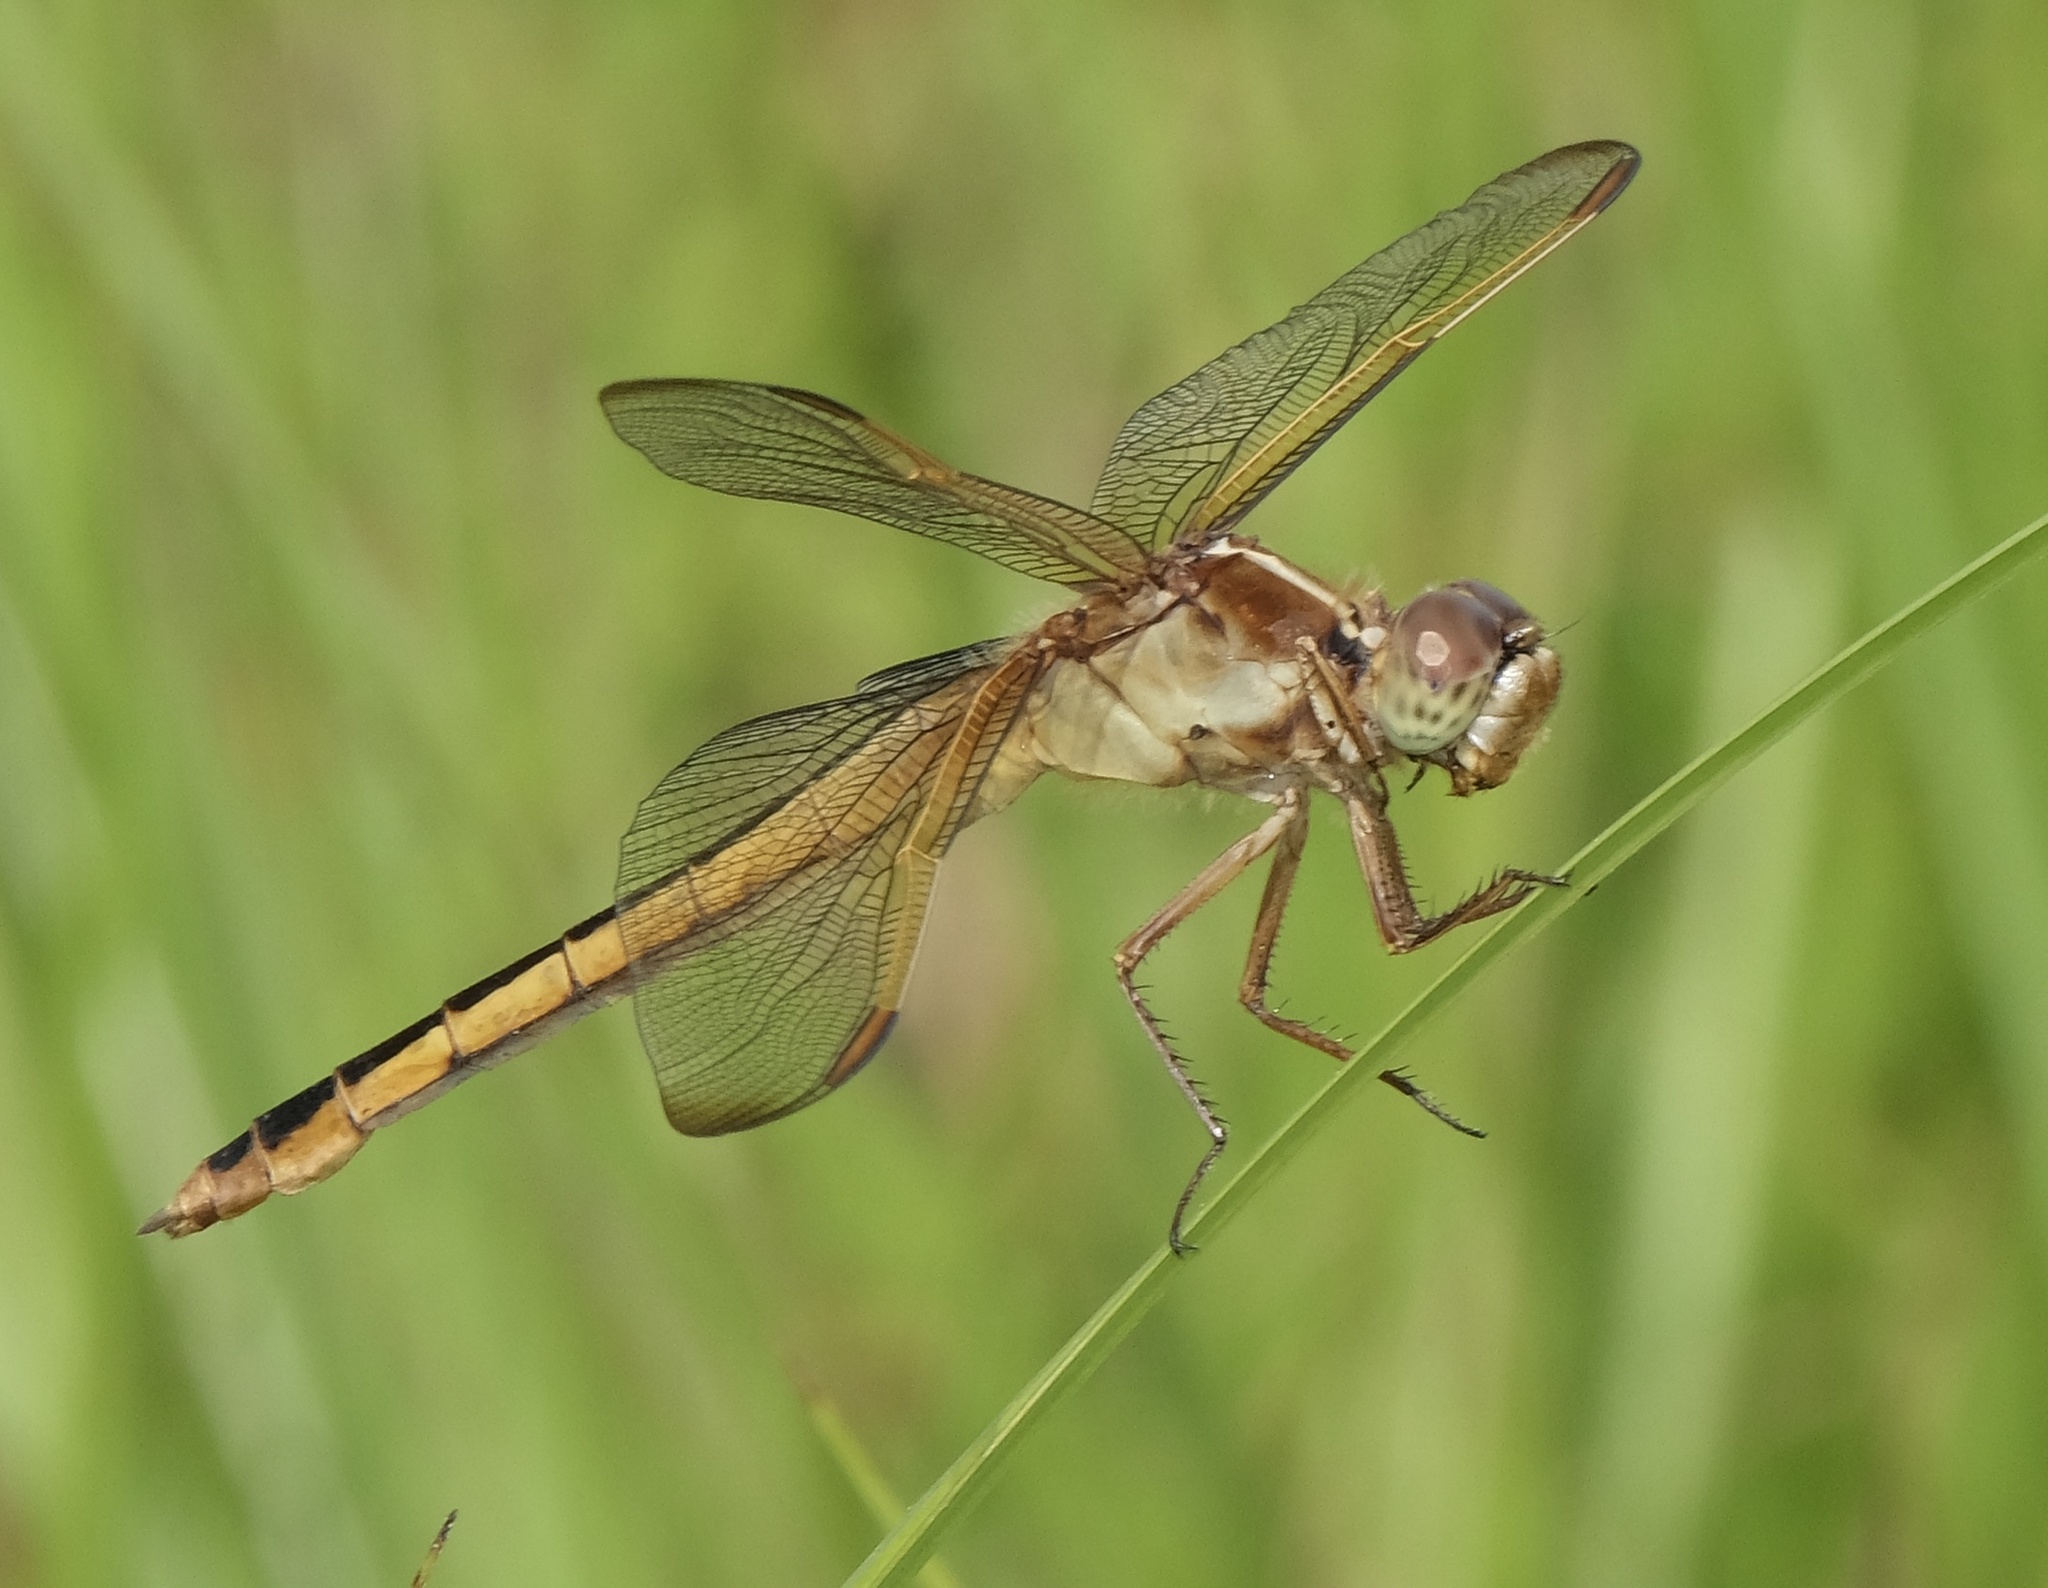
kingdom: Animalia
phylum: Arthropoda
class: Insecta
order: Odonata
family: Libellulidae
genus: Libellula
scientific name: Libellula needhami
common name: Needham's skimmer
